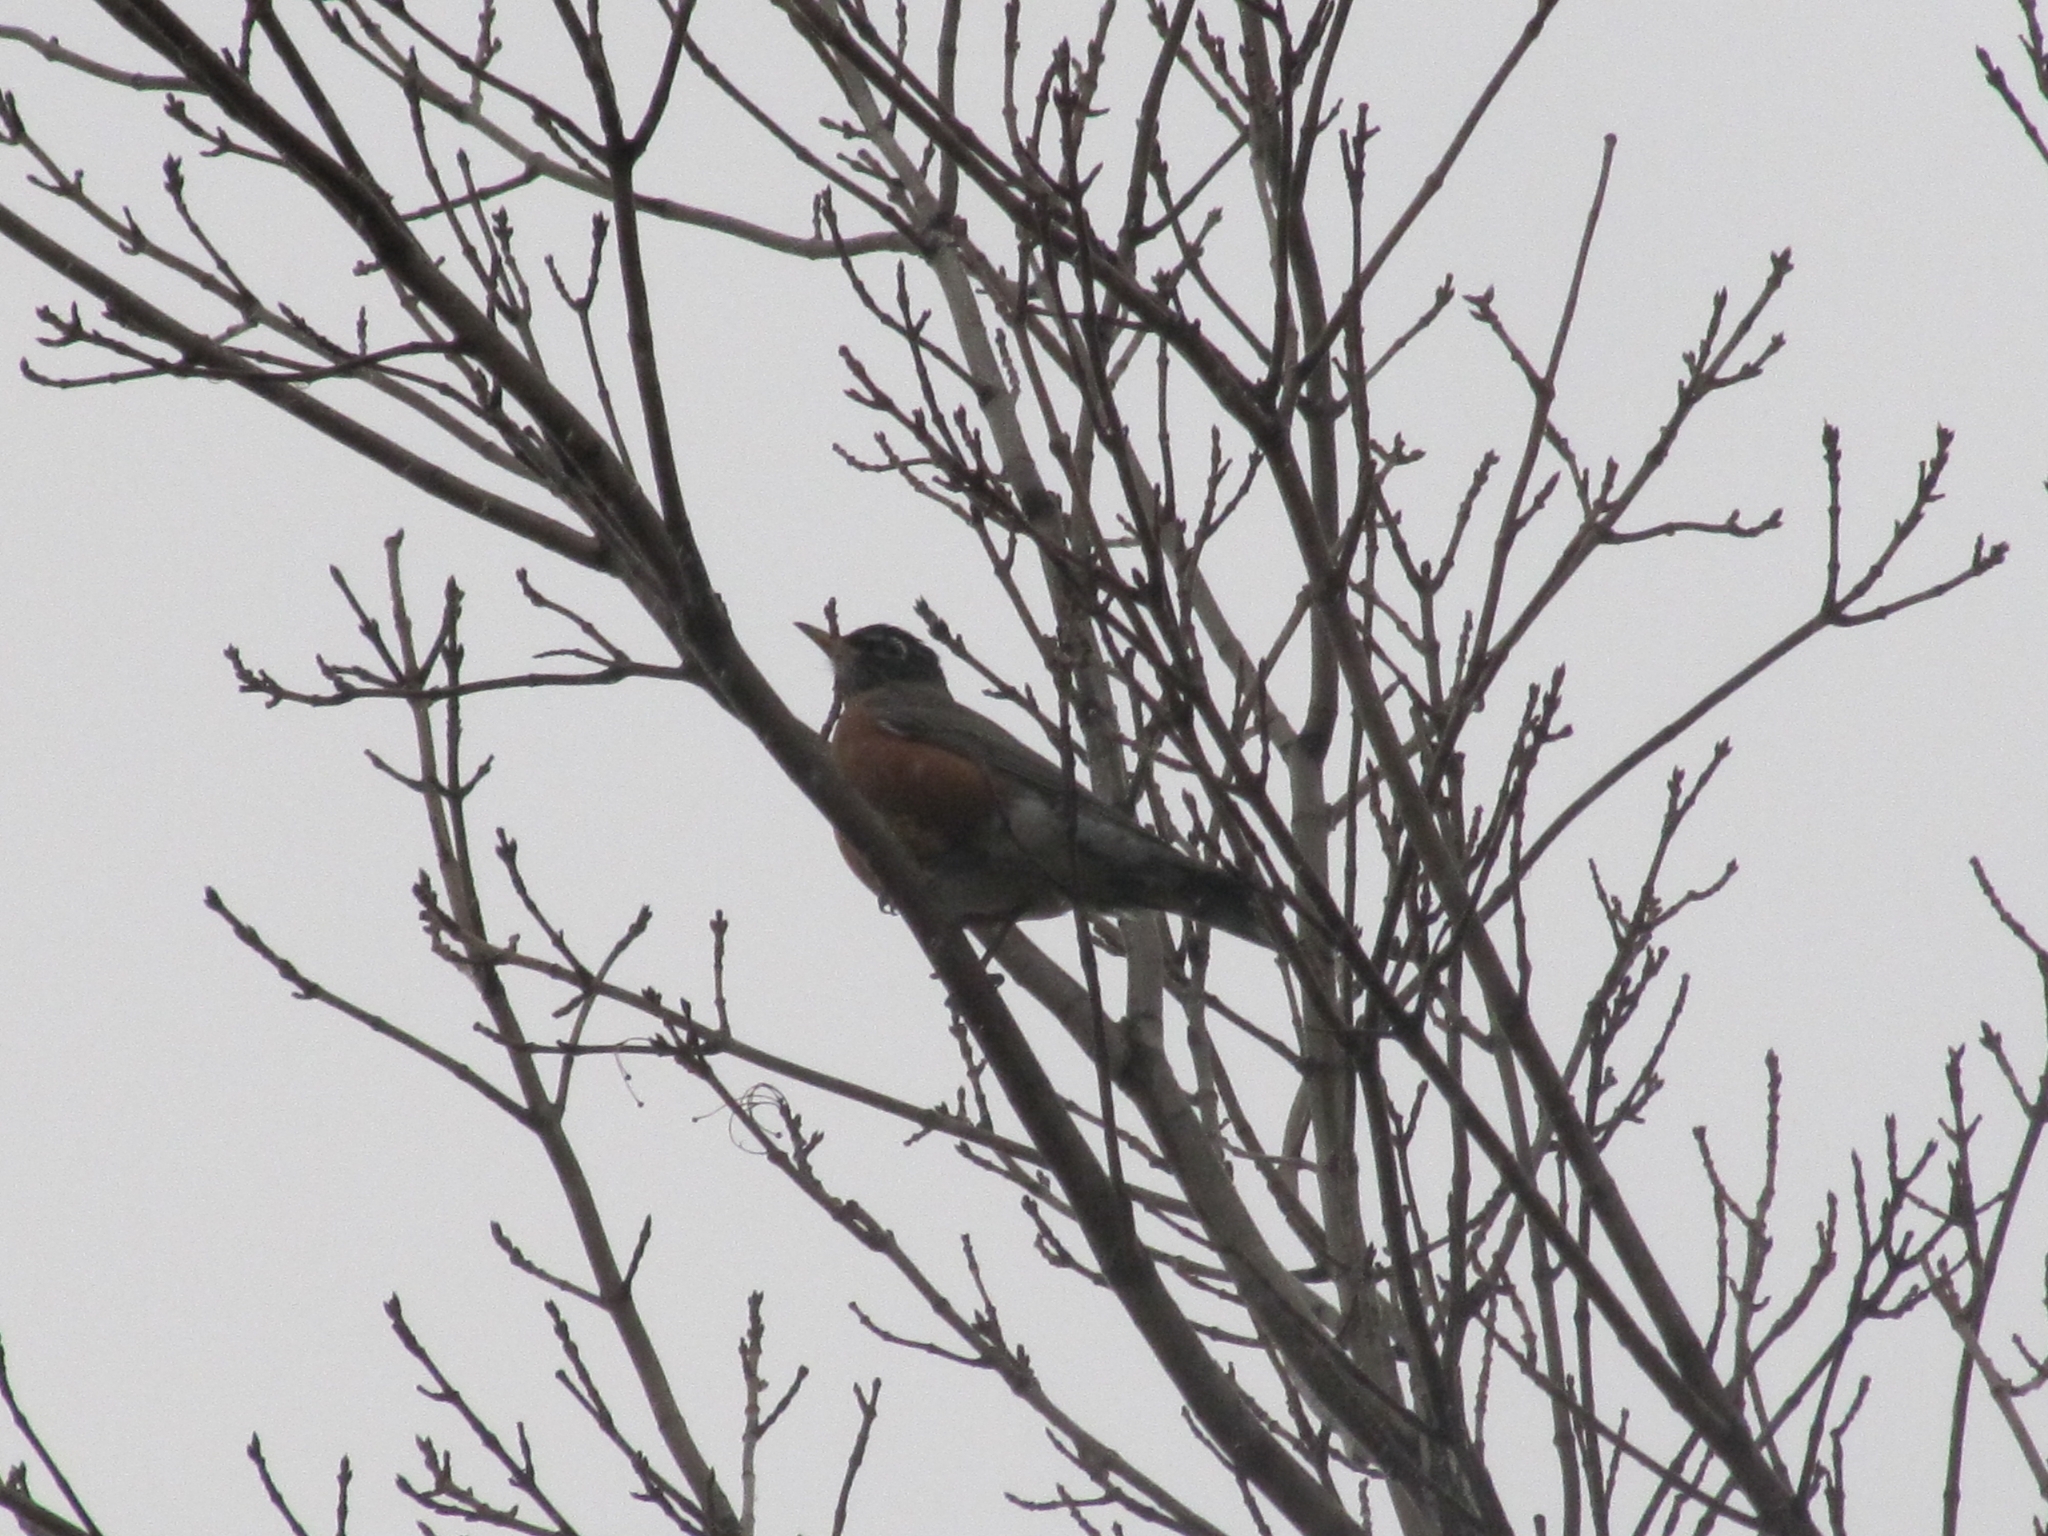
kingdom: Animalia
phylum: Chordata
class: Aves
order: Passeriformes
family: Turdidae
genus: Turdus
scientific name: Turdus migratorius
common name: American robin
